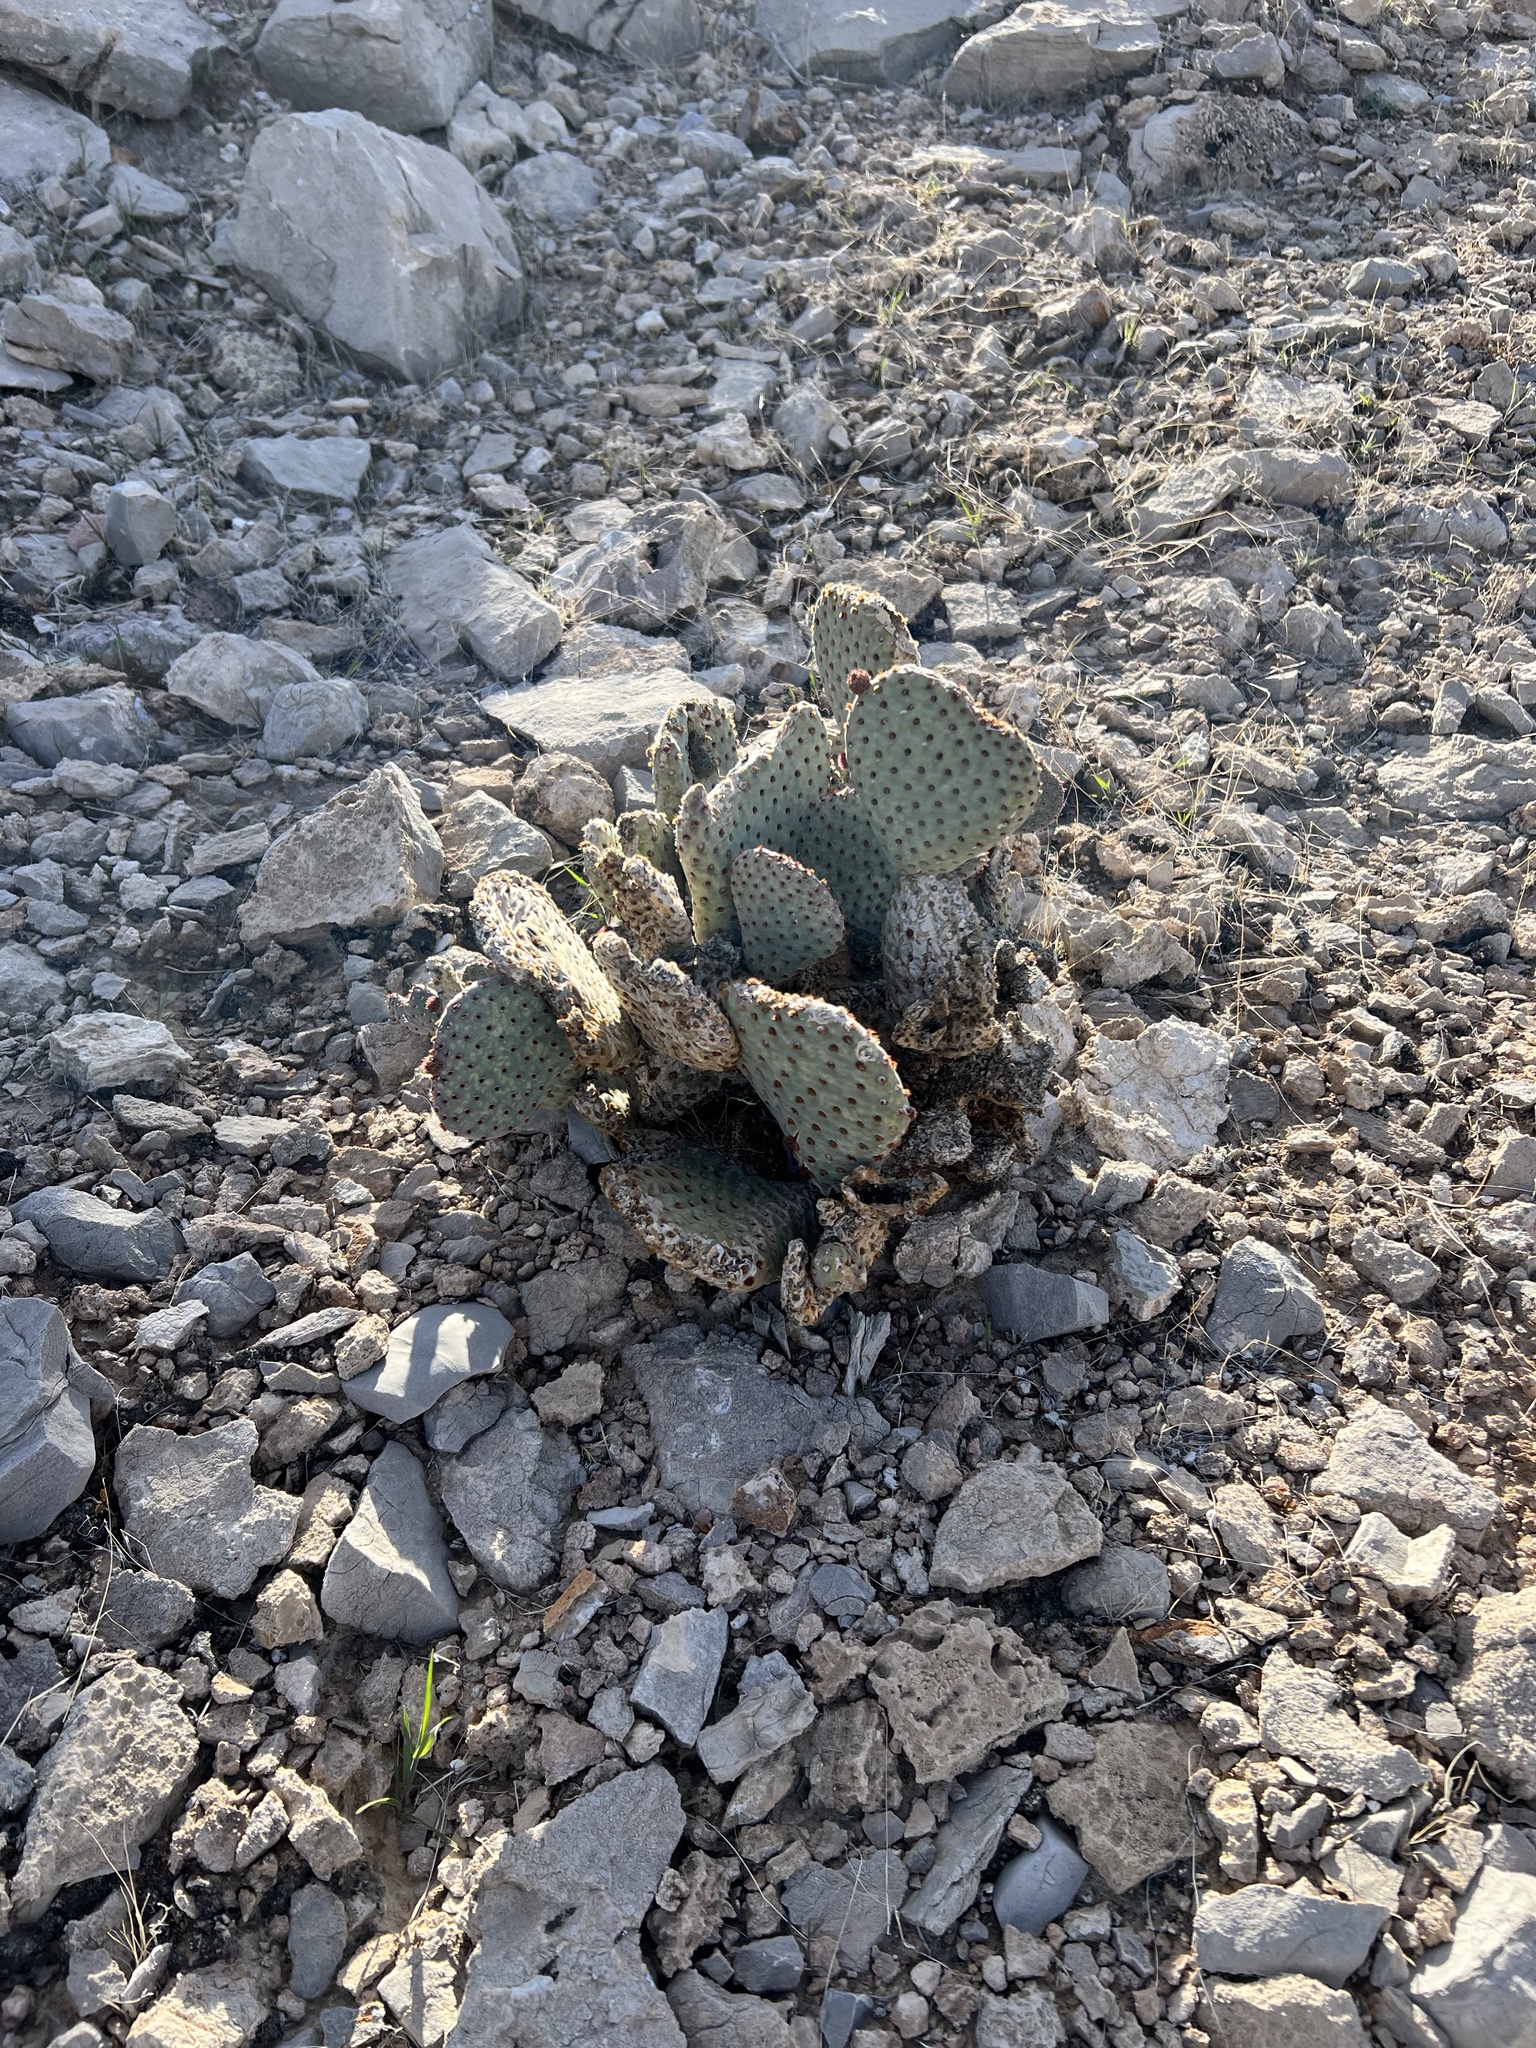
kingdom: Plantae
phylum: Tracheophyta
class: Magnoliopsida
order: Caryophyllales
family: Cactaceae
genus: Opuntia
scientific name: Opuntia basilaris
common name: Beavertail prickly-pear
